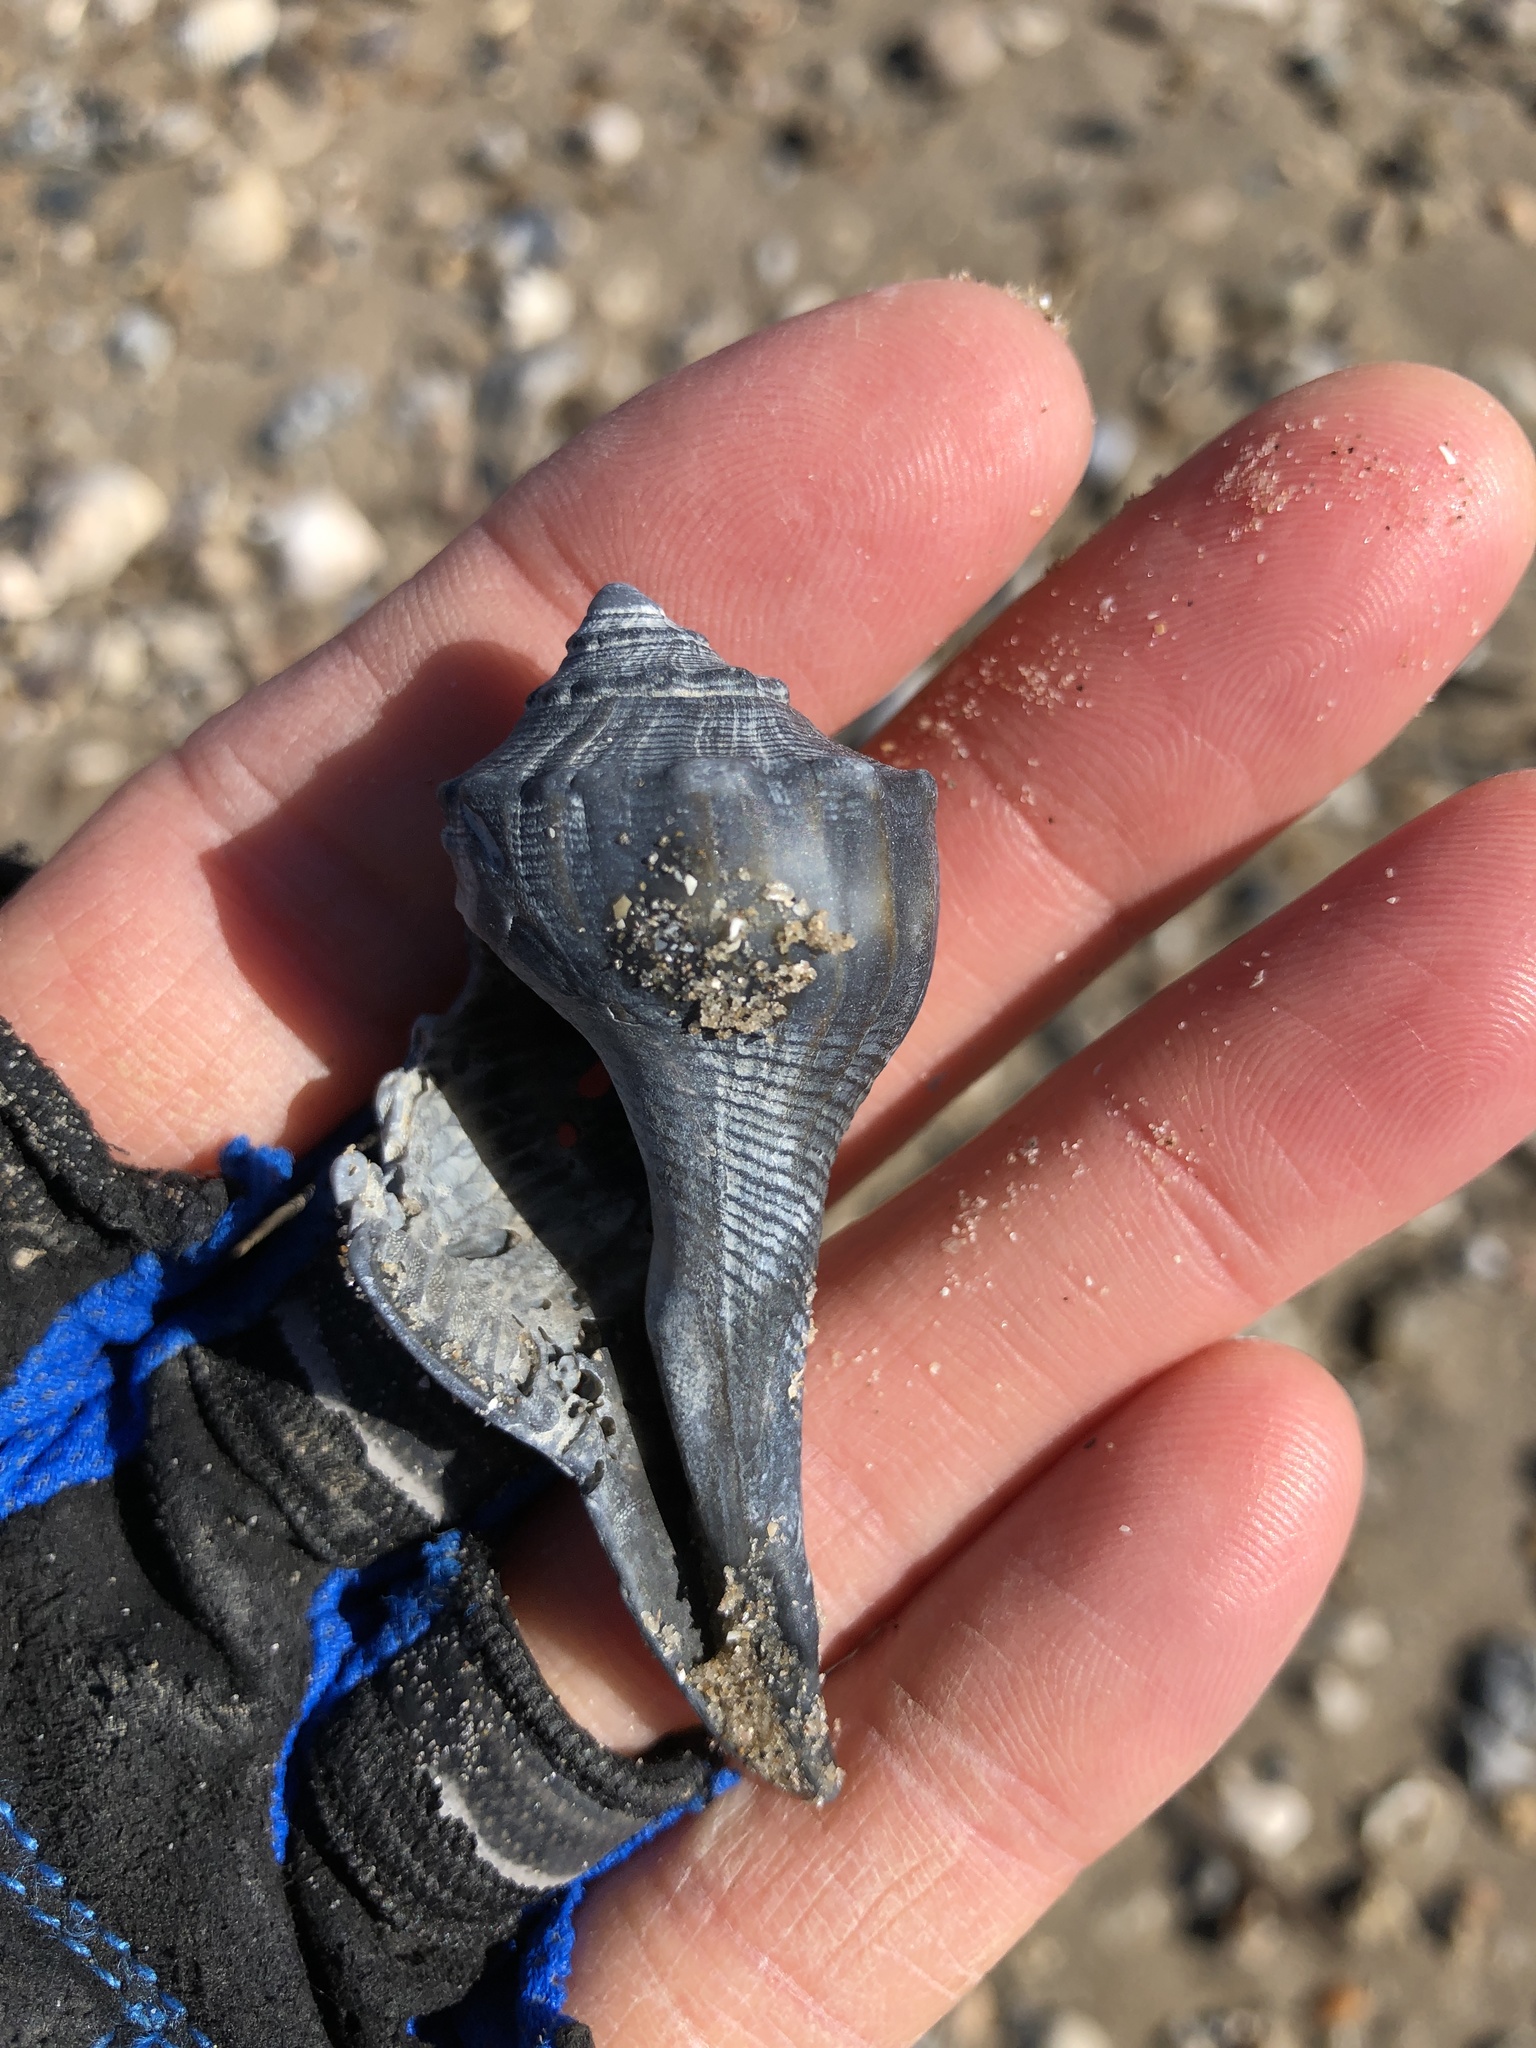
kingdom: Animalia
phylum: Mollusca
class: Gastropoda
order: Neogastropoda
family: Busyconidae
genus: Sinistrofulgur
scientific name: Sinistrofulgur pulleyi
